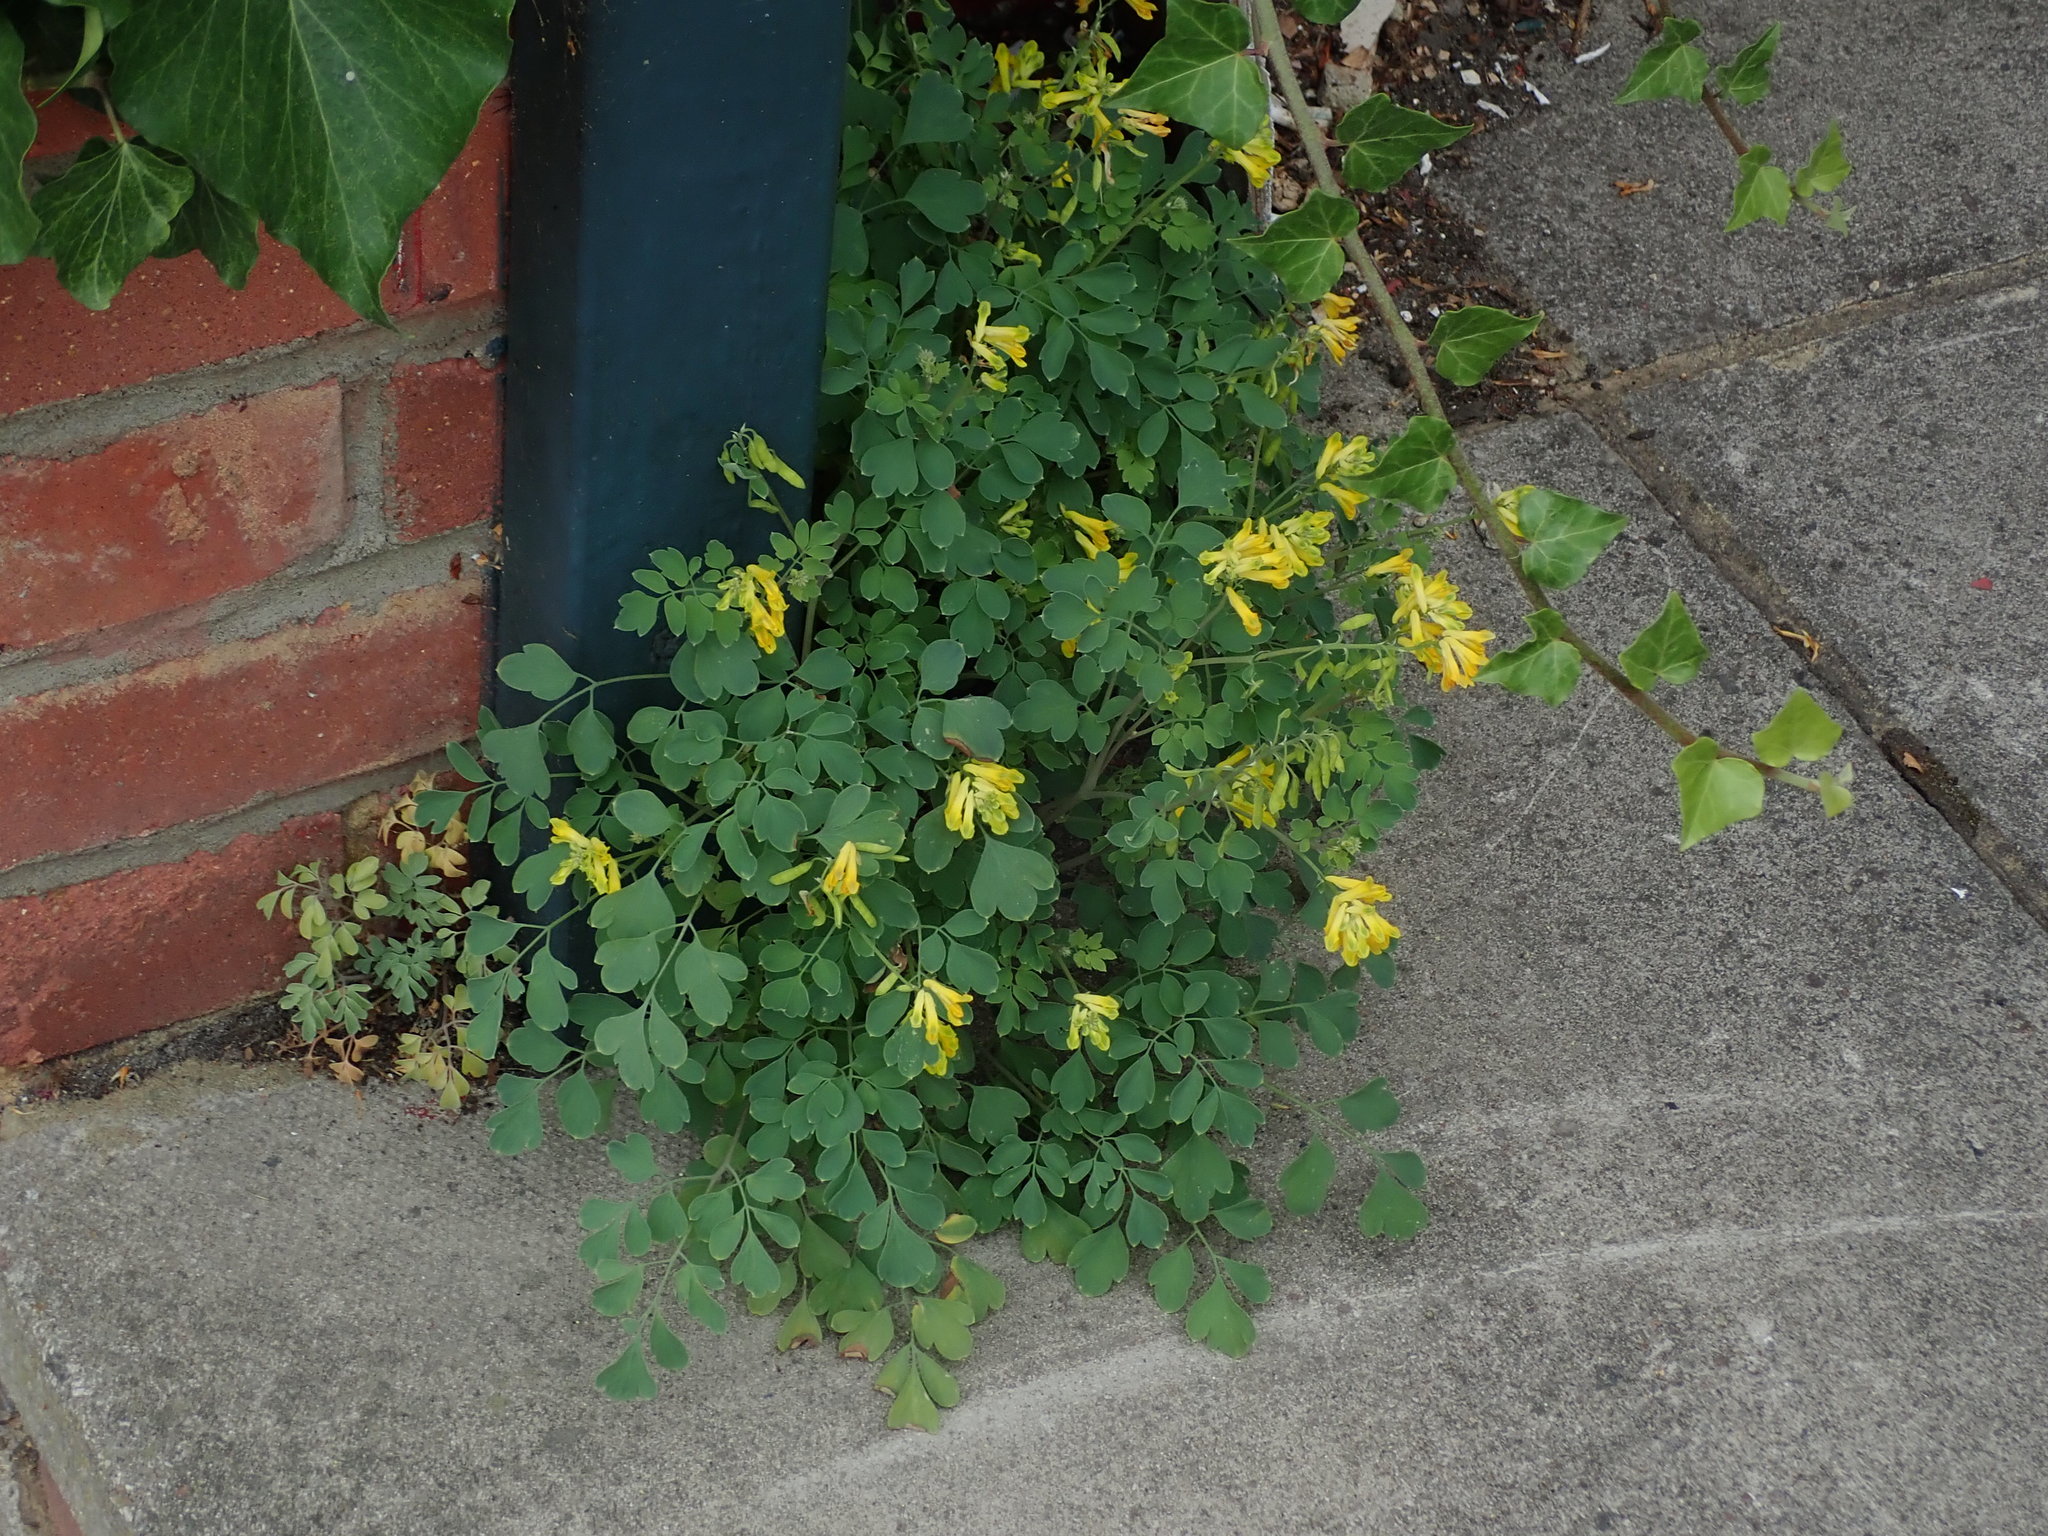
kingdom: Plantae
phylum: Tracheophyta
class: Magnoliopsida
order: Ranunculales
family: Papaveraceae
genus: Pseudofumaria
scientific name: Pseudofumaria lutea
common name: Yellow corydalis
